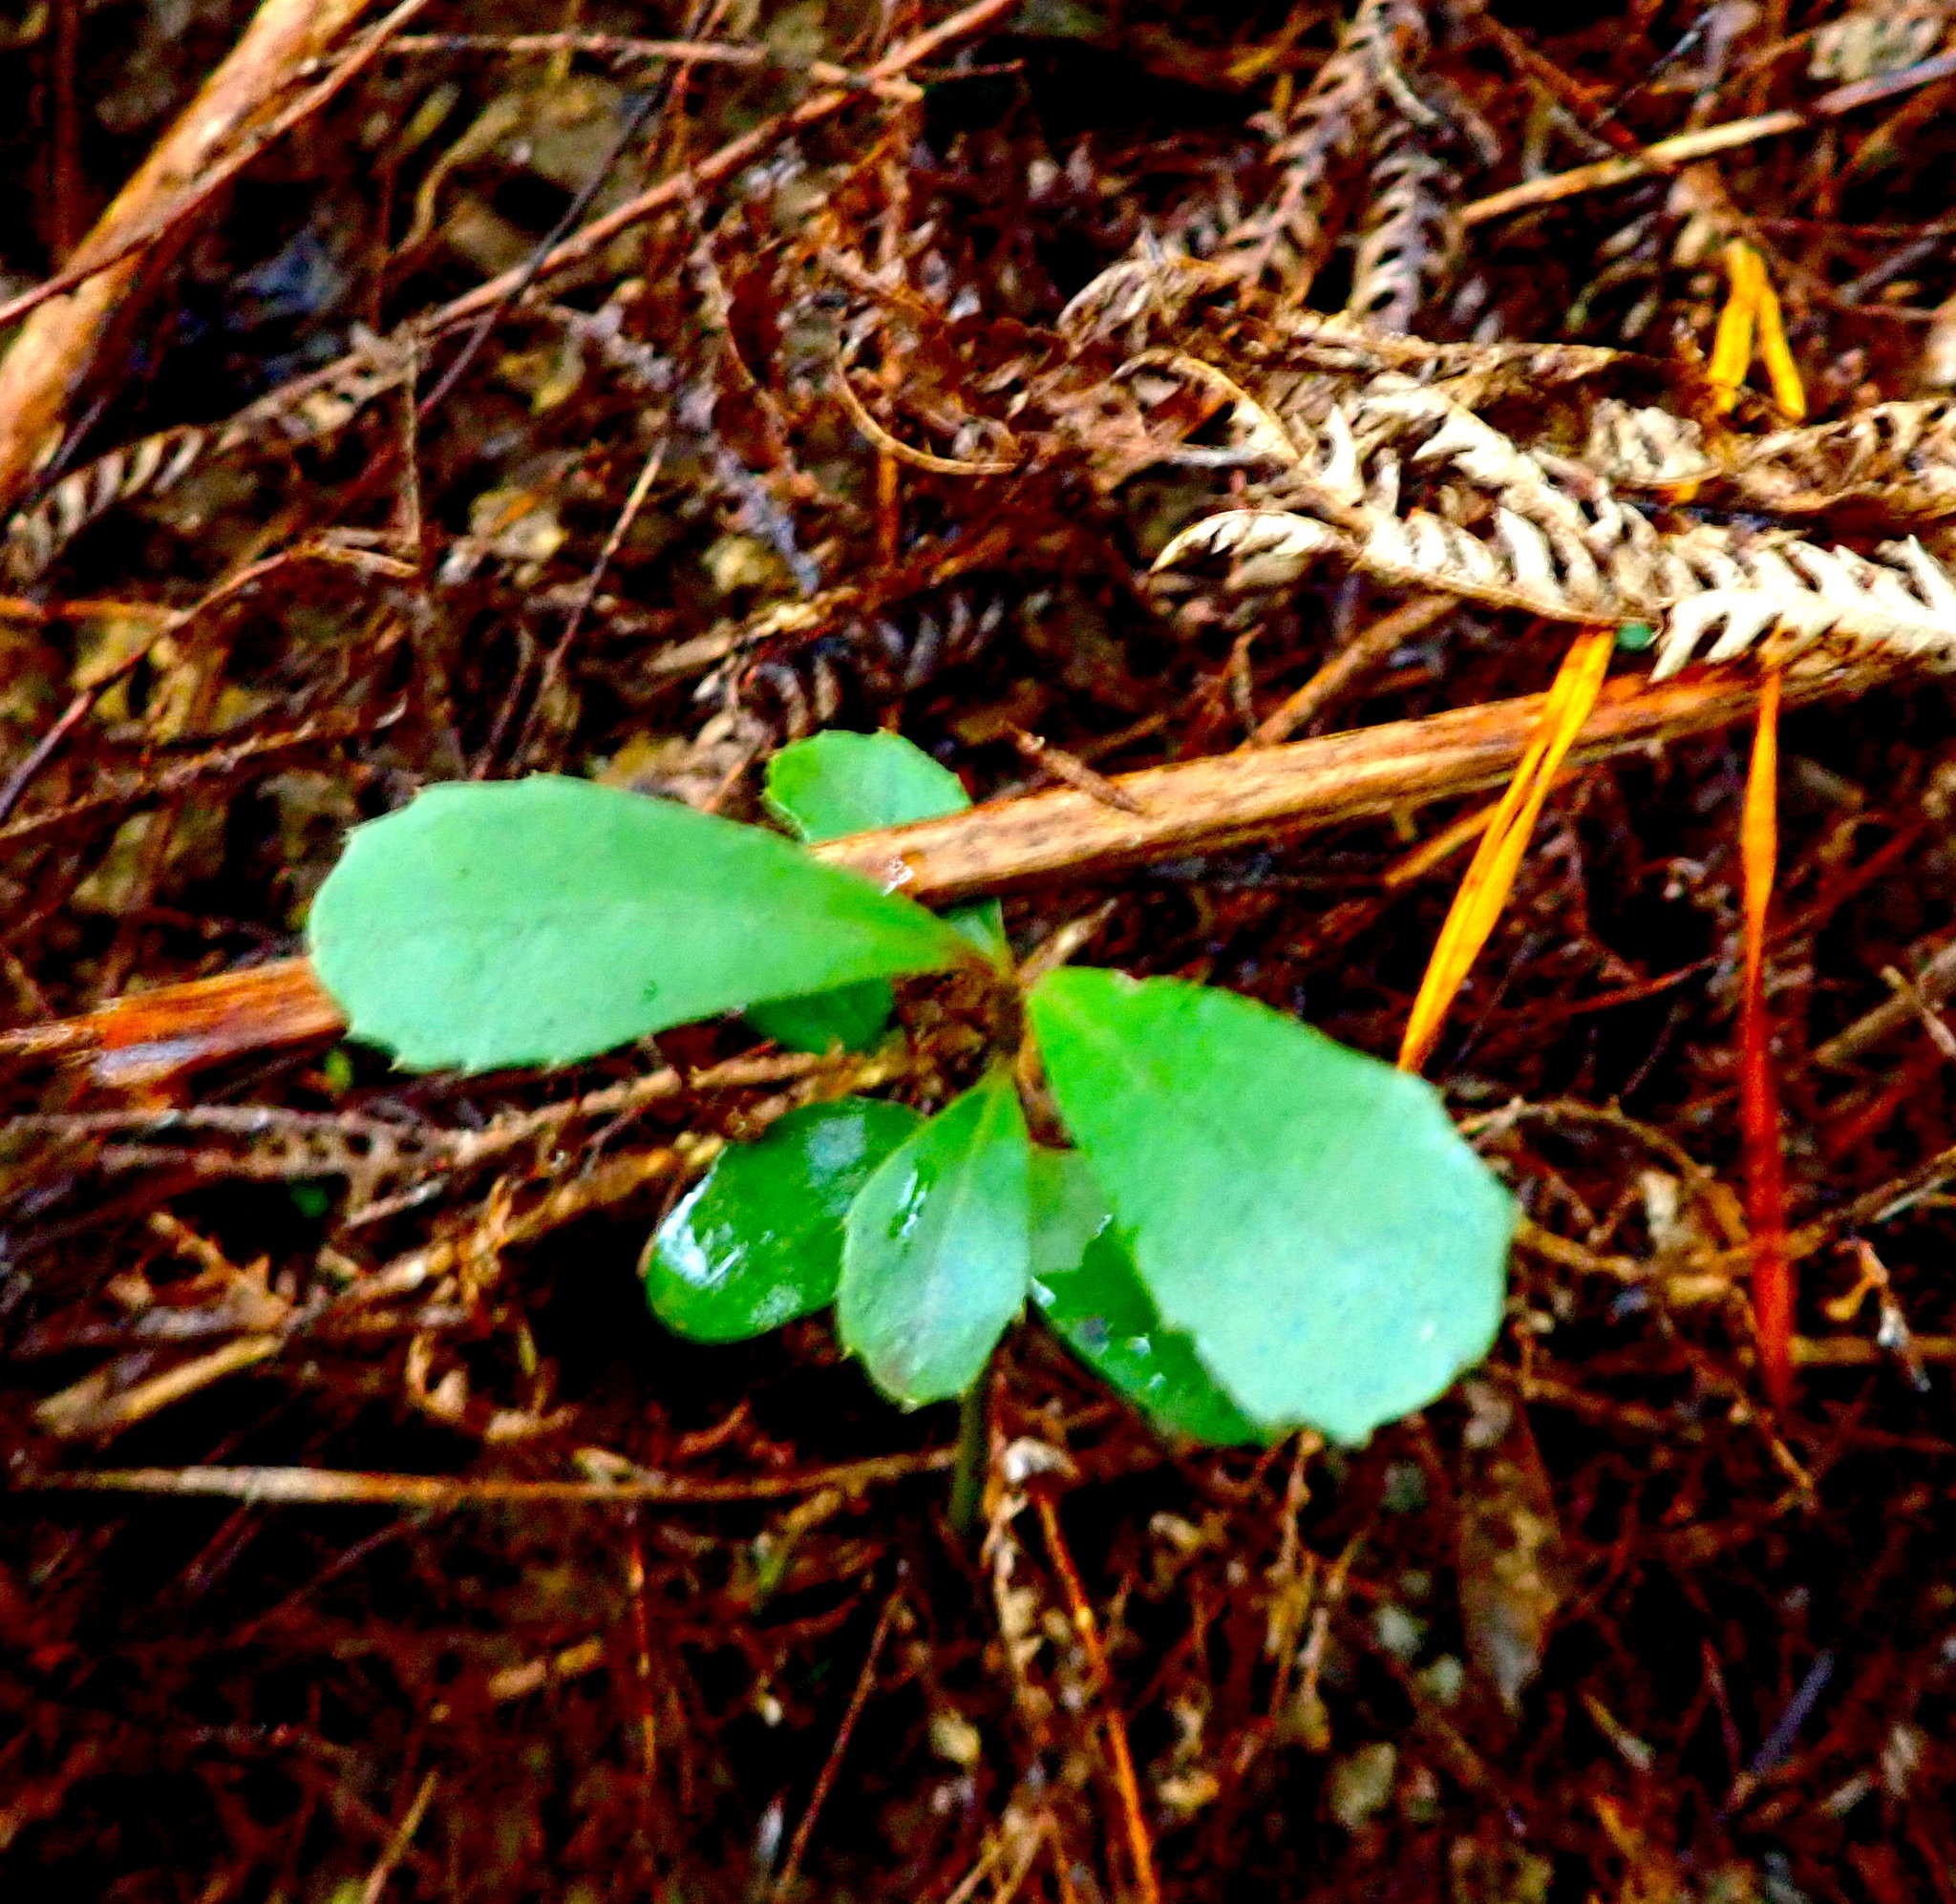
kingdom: Plantae
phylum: Tracheophyta
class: Magnoliopsida
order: Laurales
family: Monimiaceae
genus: Hedycarya
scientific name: Hedycarya arborea
